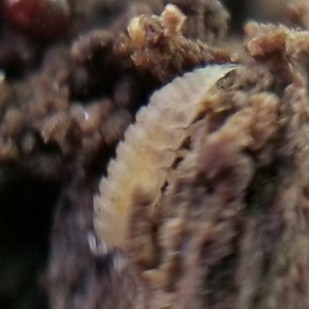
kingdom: Animalia
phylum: Arthropoda
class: Malacostraca
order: Isopoda
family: Trichoniscidae
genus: Haplophthalmus
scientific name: Haplophthalmus danicus
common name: Pillbug
